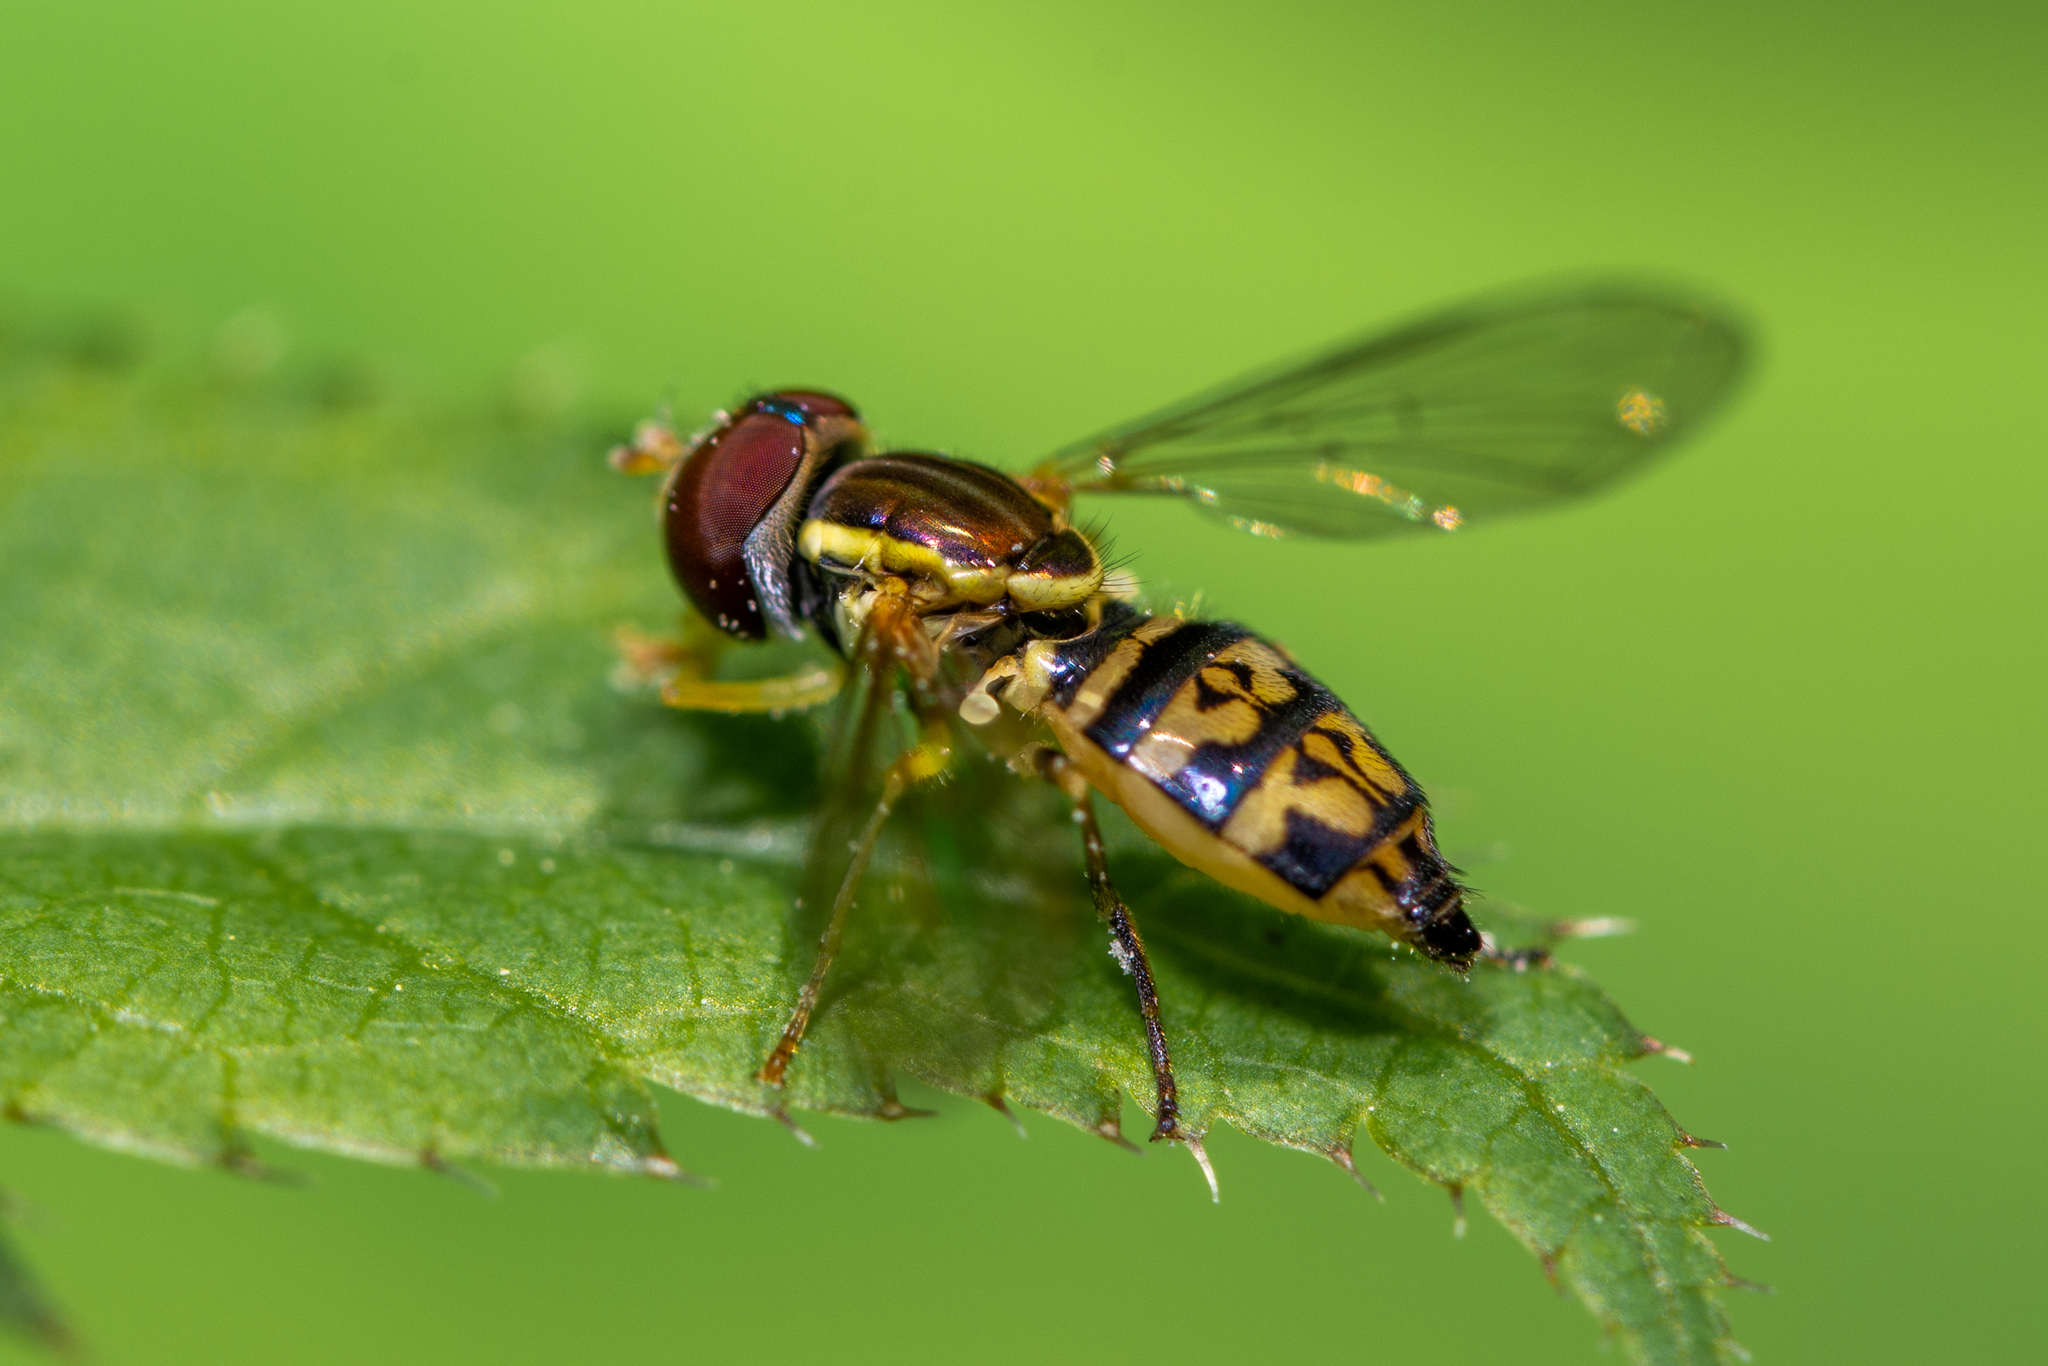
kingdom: Animalia
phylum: Arthropoda
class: Insecta
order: Diptera
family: Syrphidae
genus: Toxomerus
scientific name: Toxomerus geminatus
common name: Eastern calligrapher
